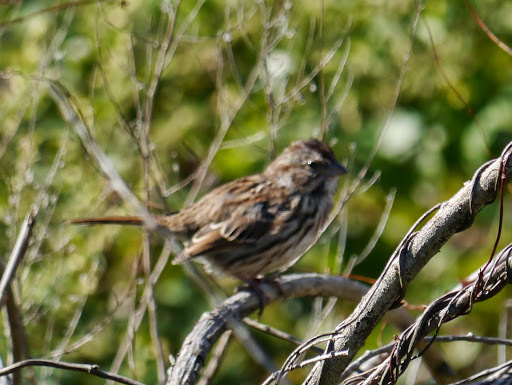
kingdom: Animalia
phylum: Chordata
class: Aves
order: Passeriformes
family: Passerellidae
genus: Melospiza
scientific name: Melospiza melodia
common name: Song sparrow
